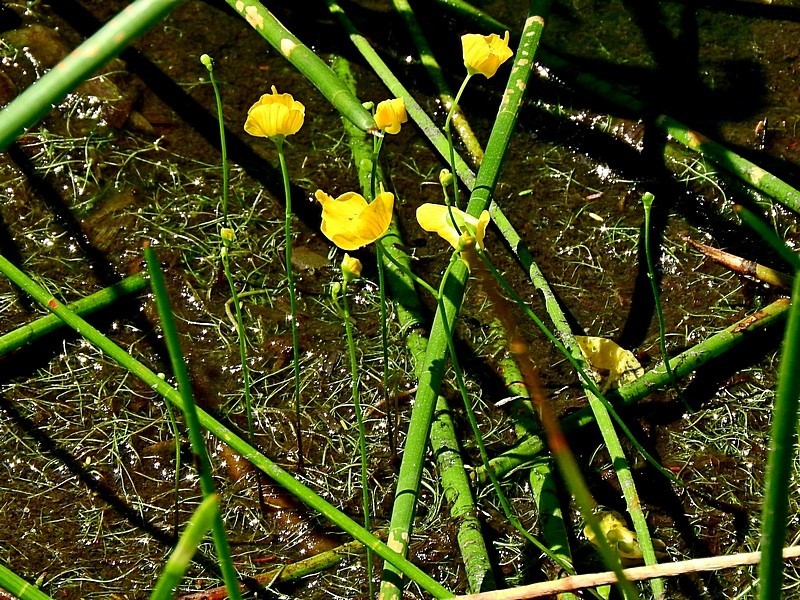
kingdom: Plantae
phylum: Tracheophyta
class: Magnoliopsida
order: Lamiales
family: Lentibulariaceae
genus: Utricularia
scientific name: Utricularia gibba
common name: Humped bladderwort
